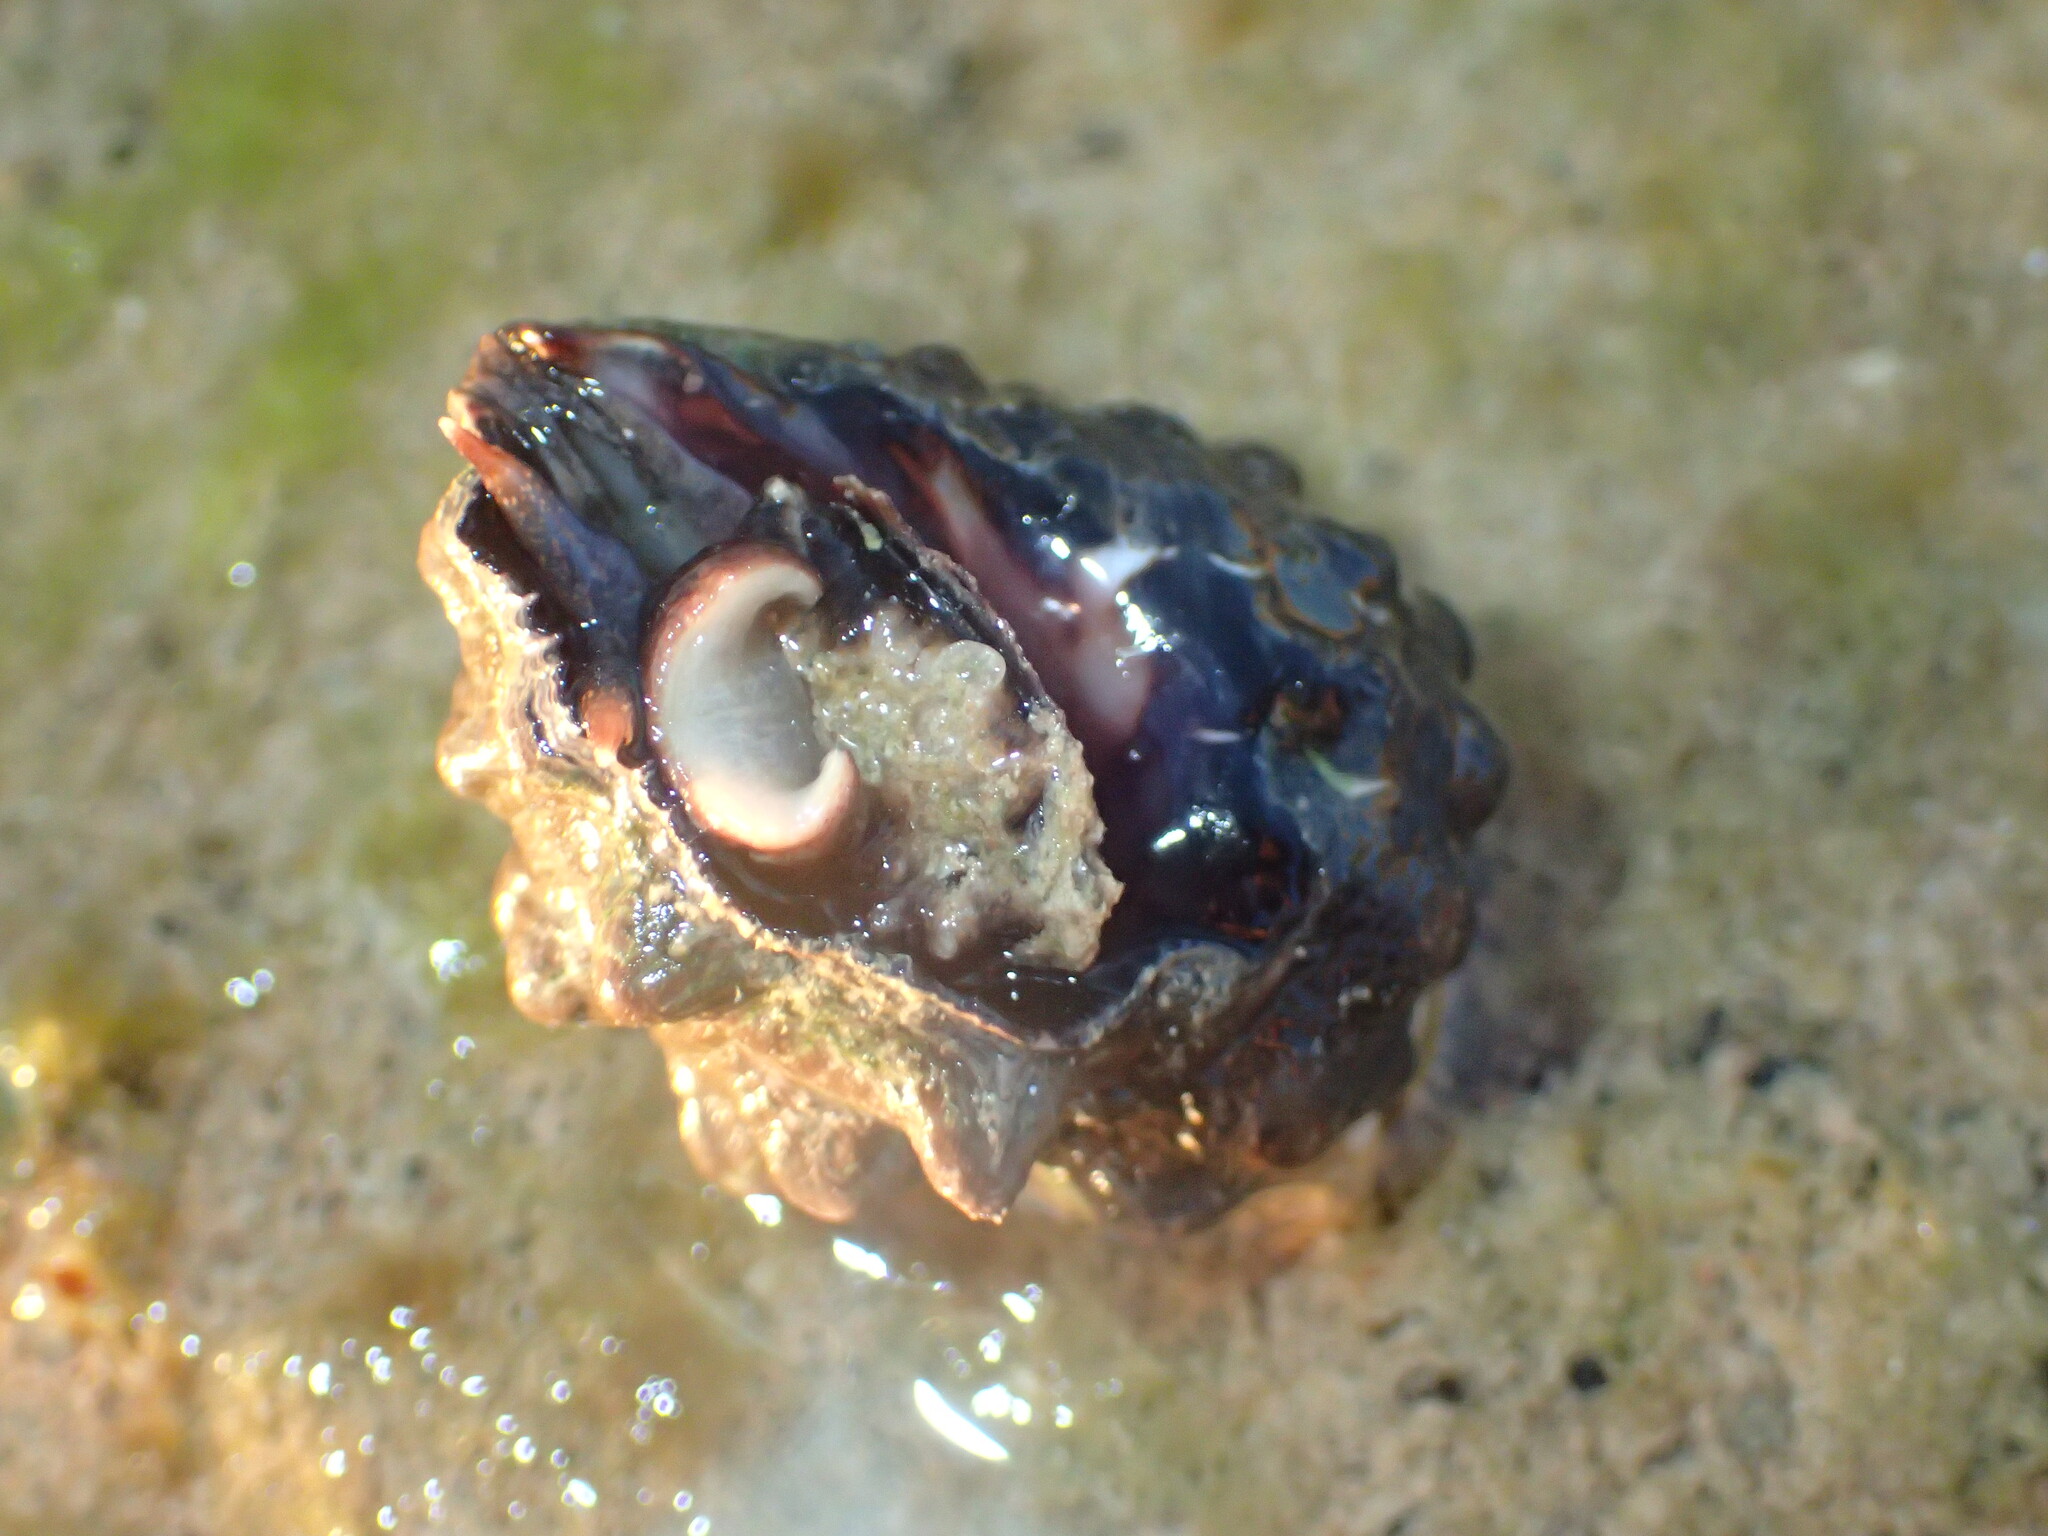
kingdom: Animalia
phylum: Mollusca
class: Gastropoda
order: Neogastropoda
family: Muricidae
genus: Tylothais
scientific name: Tylothais virgata
